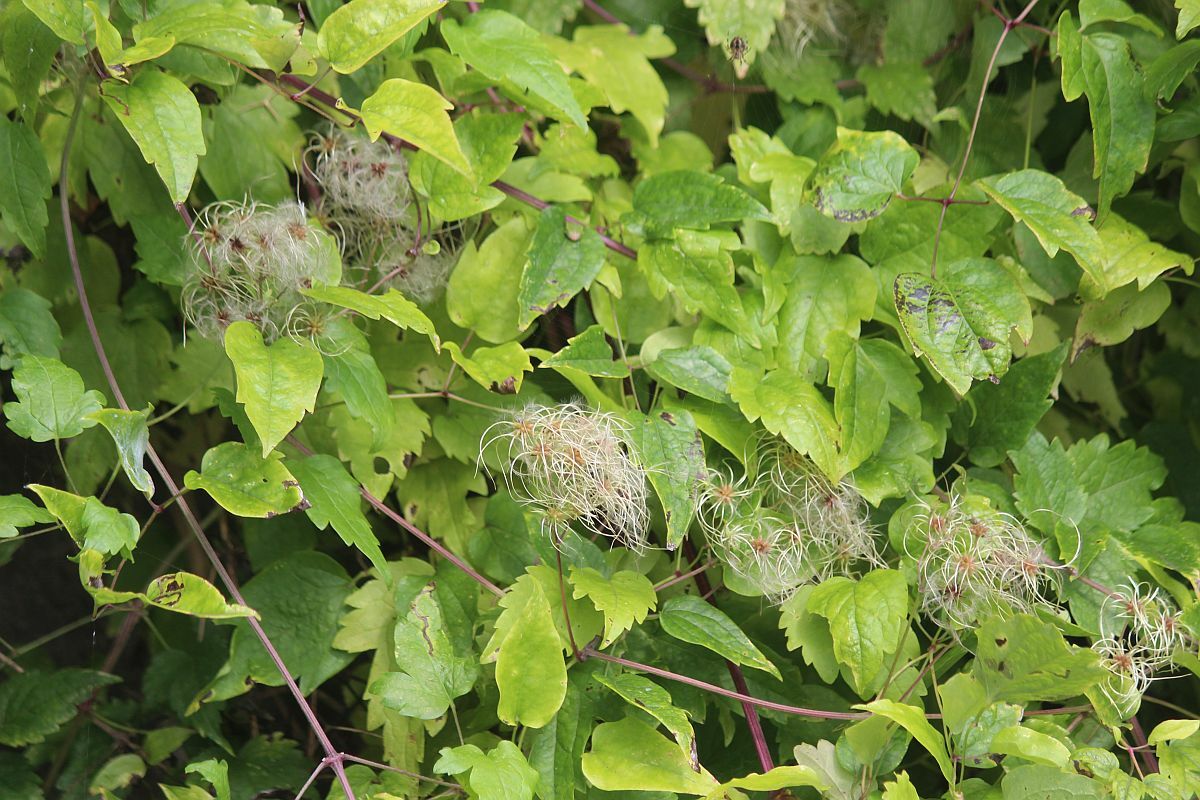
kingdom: Plantae
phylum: Tracheophyta
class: Magnoliopsida
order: Ranunculales
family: Ranunculaceae
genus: Clematis
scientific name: Clematis vitalba
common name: Evergreen clematis
